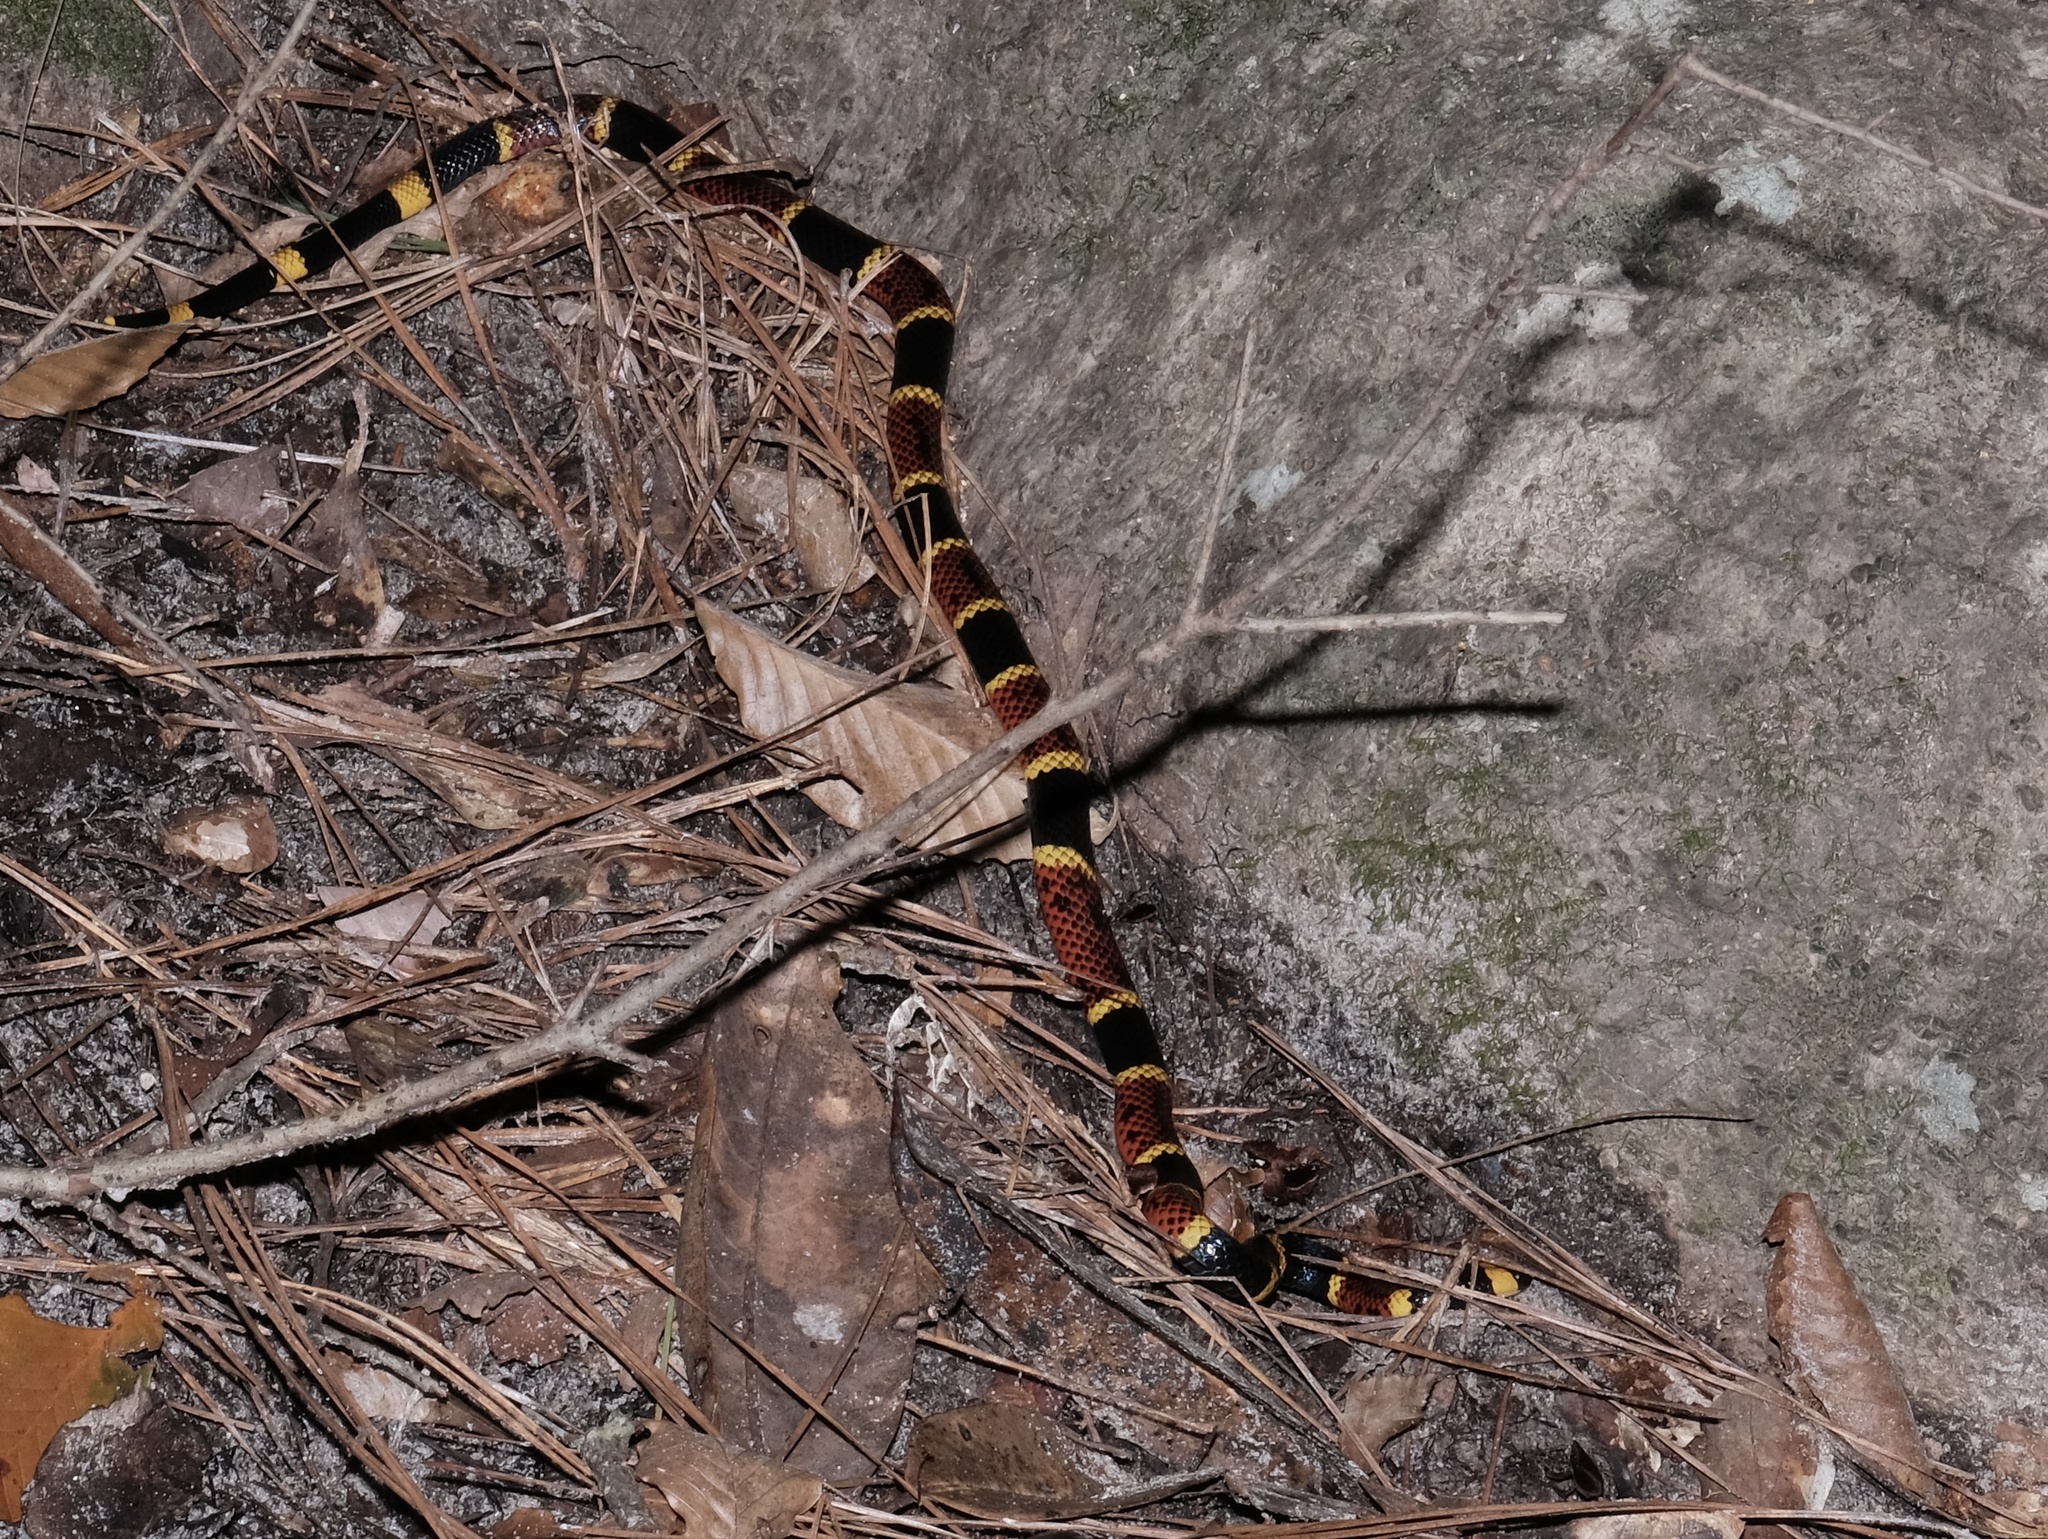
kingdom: Animalia
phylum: Chordata
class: Squamata
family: Elapidae
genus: Micrurus
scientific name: Micrurus tener
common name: Texas coral snake
